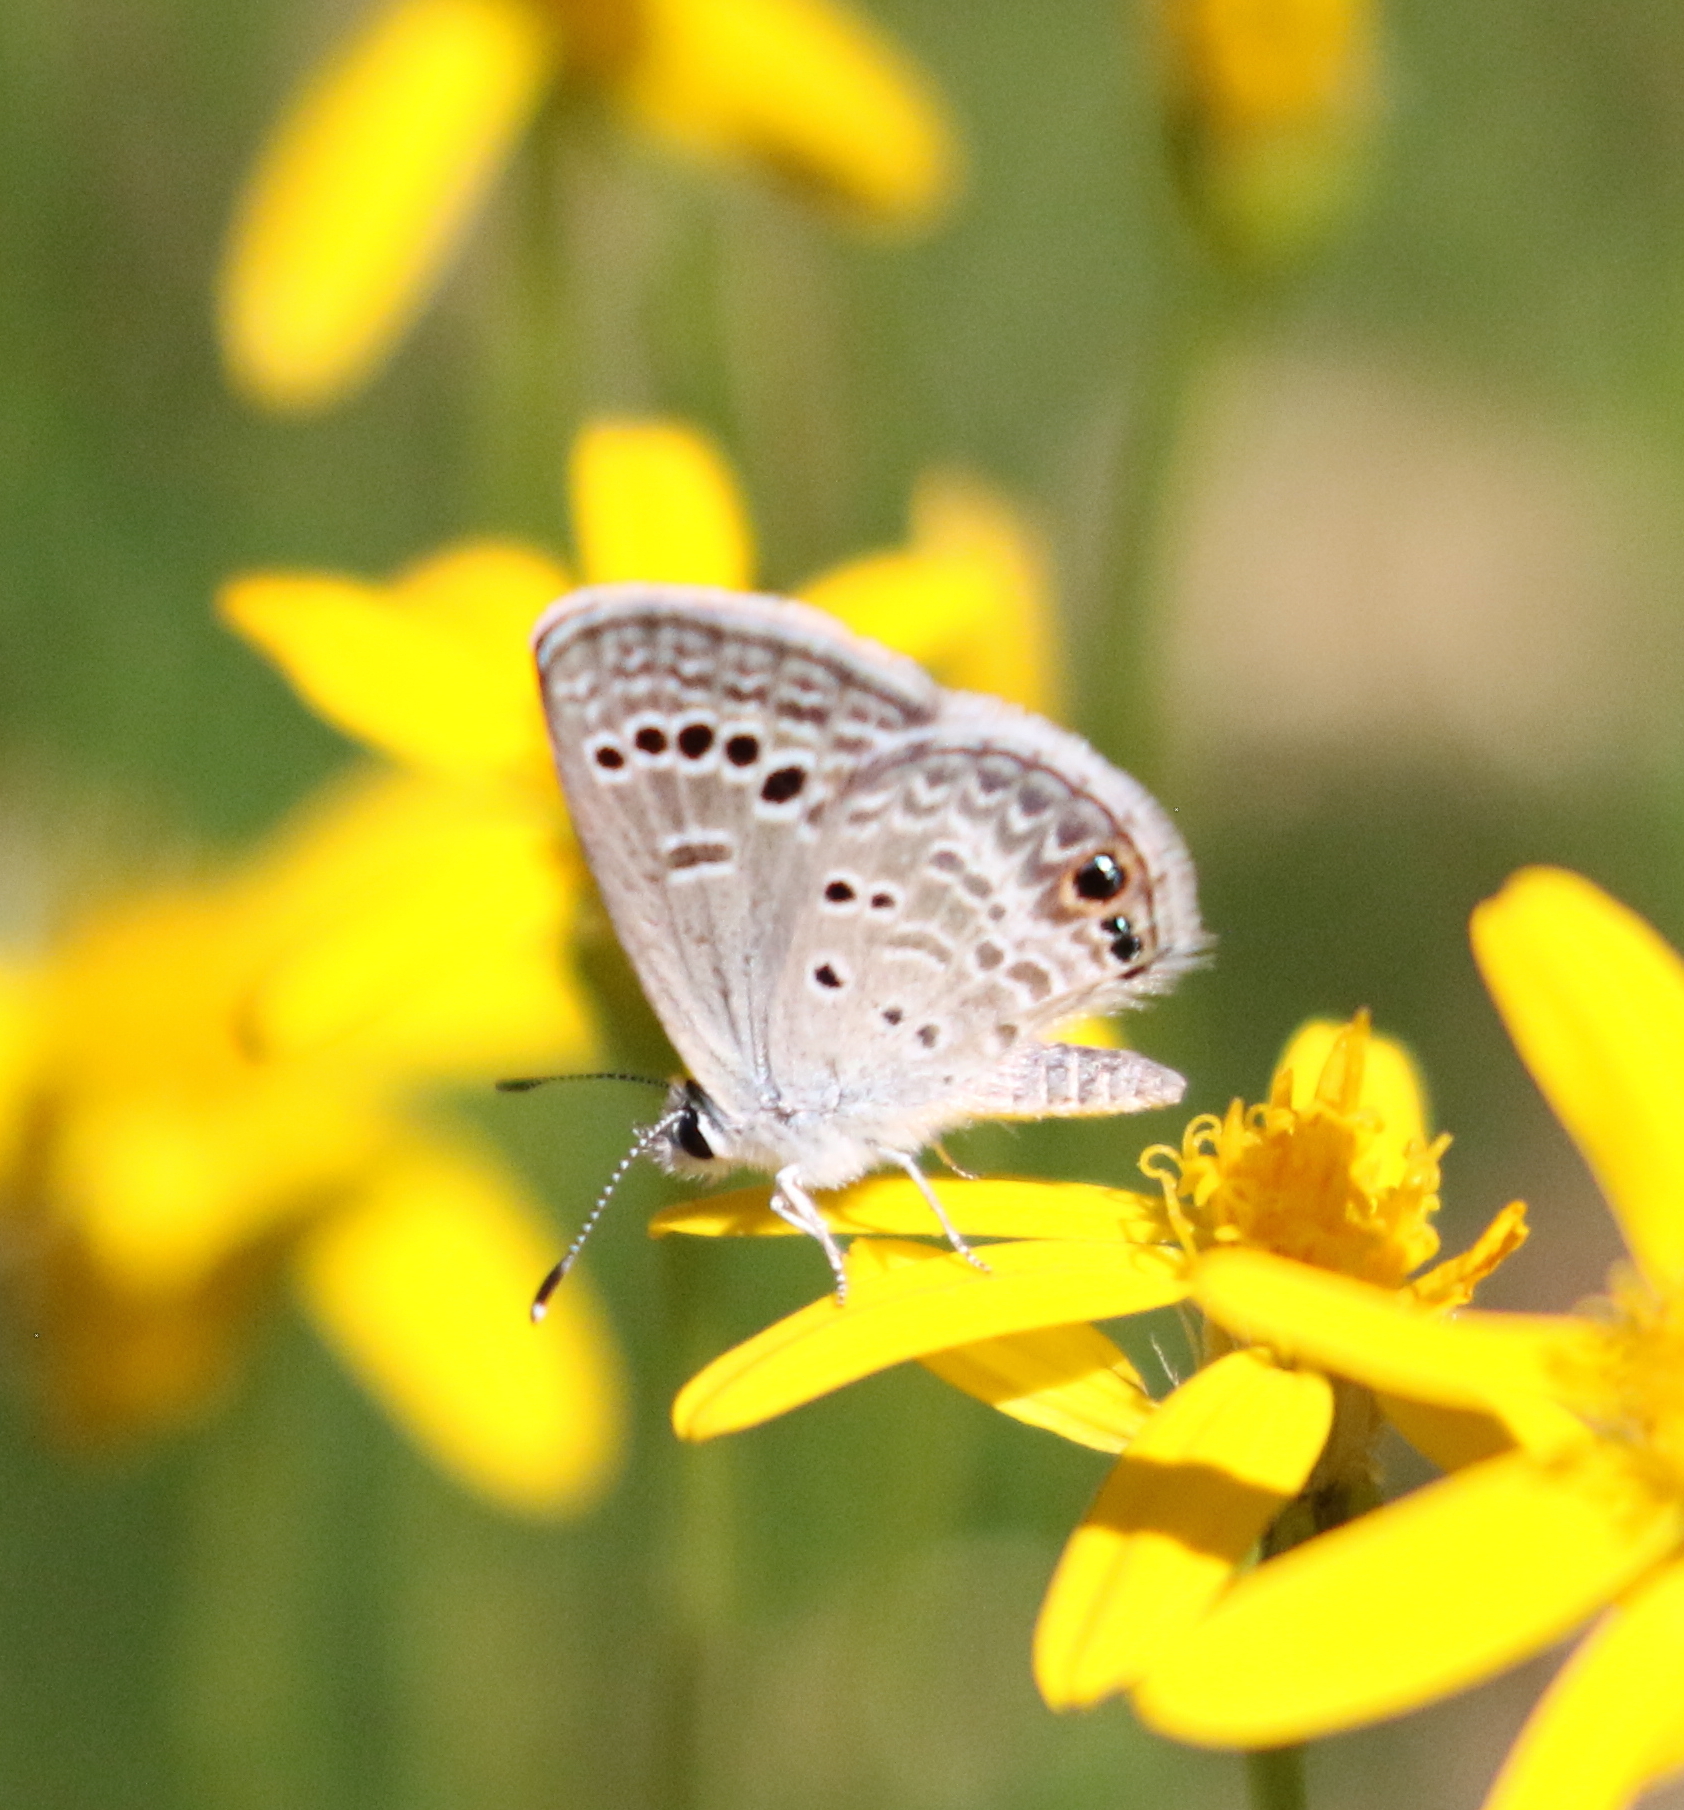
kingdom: Animalia
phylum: Arthropoda
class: Insecta
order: Lepidoptera
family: Lycaenidae
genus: Echinargus
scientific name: Echinargus isola
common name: Reakirt's blue
